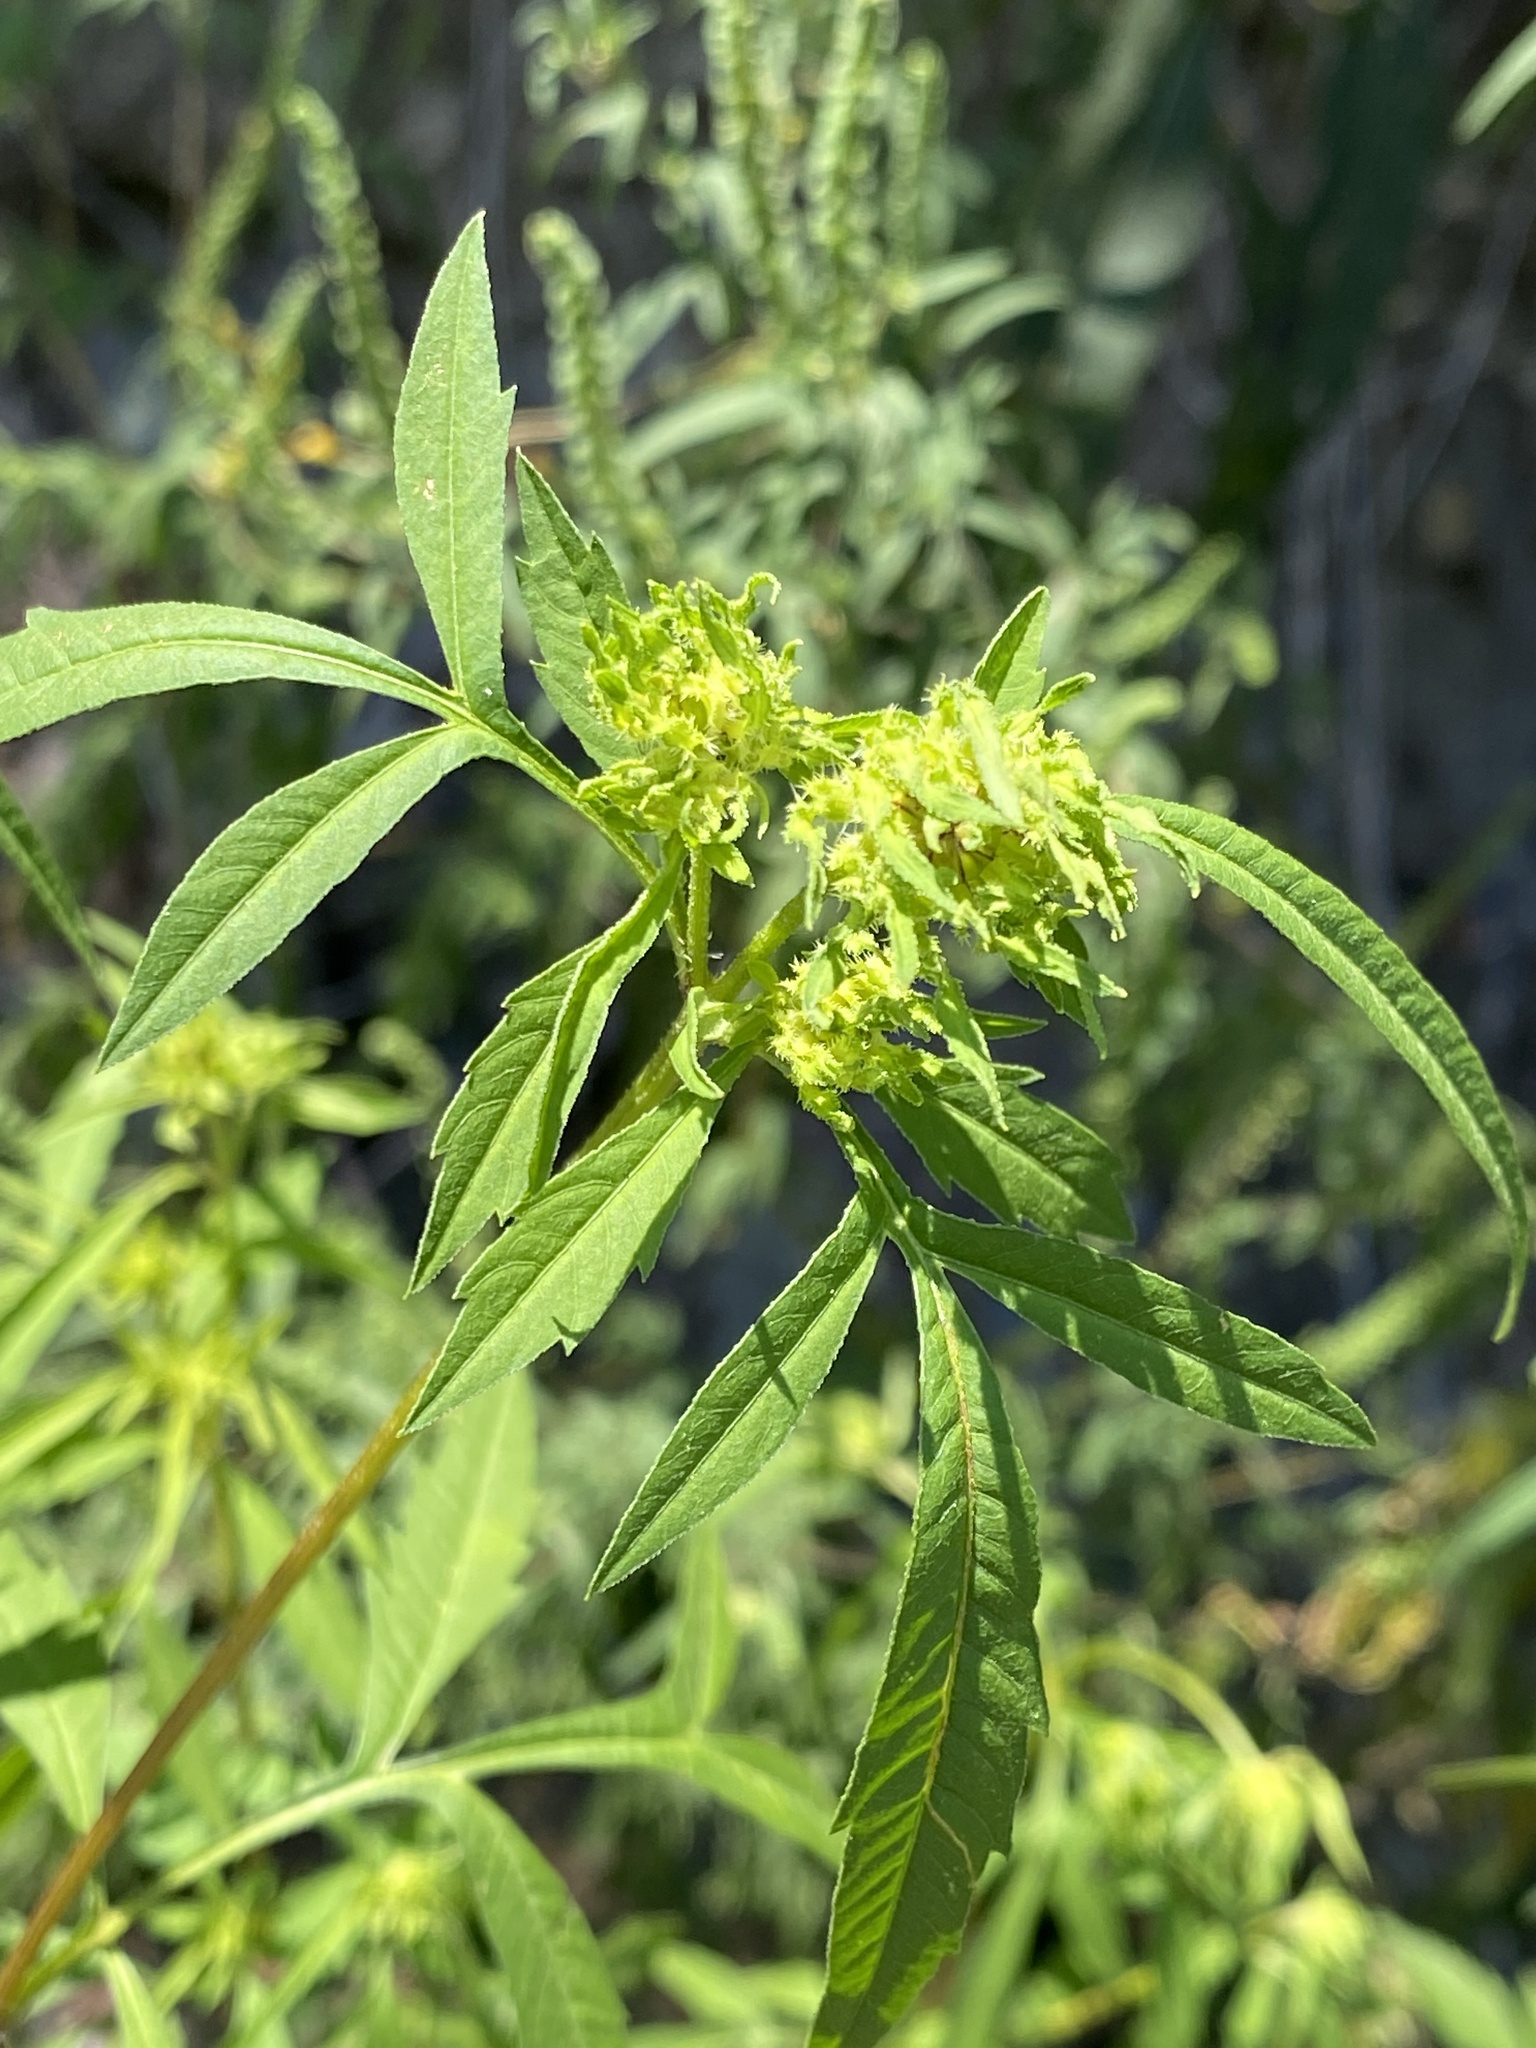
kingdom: Plantae
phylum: Tracheophyta
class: Magnoliopsida
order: Asterales
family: Asteraceae
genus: Bidens
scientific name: Bidens polylepis
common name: Awnless beggarticks
